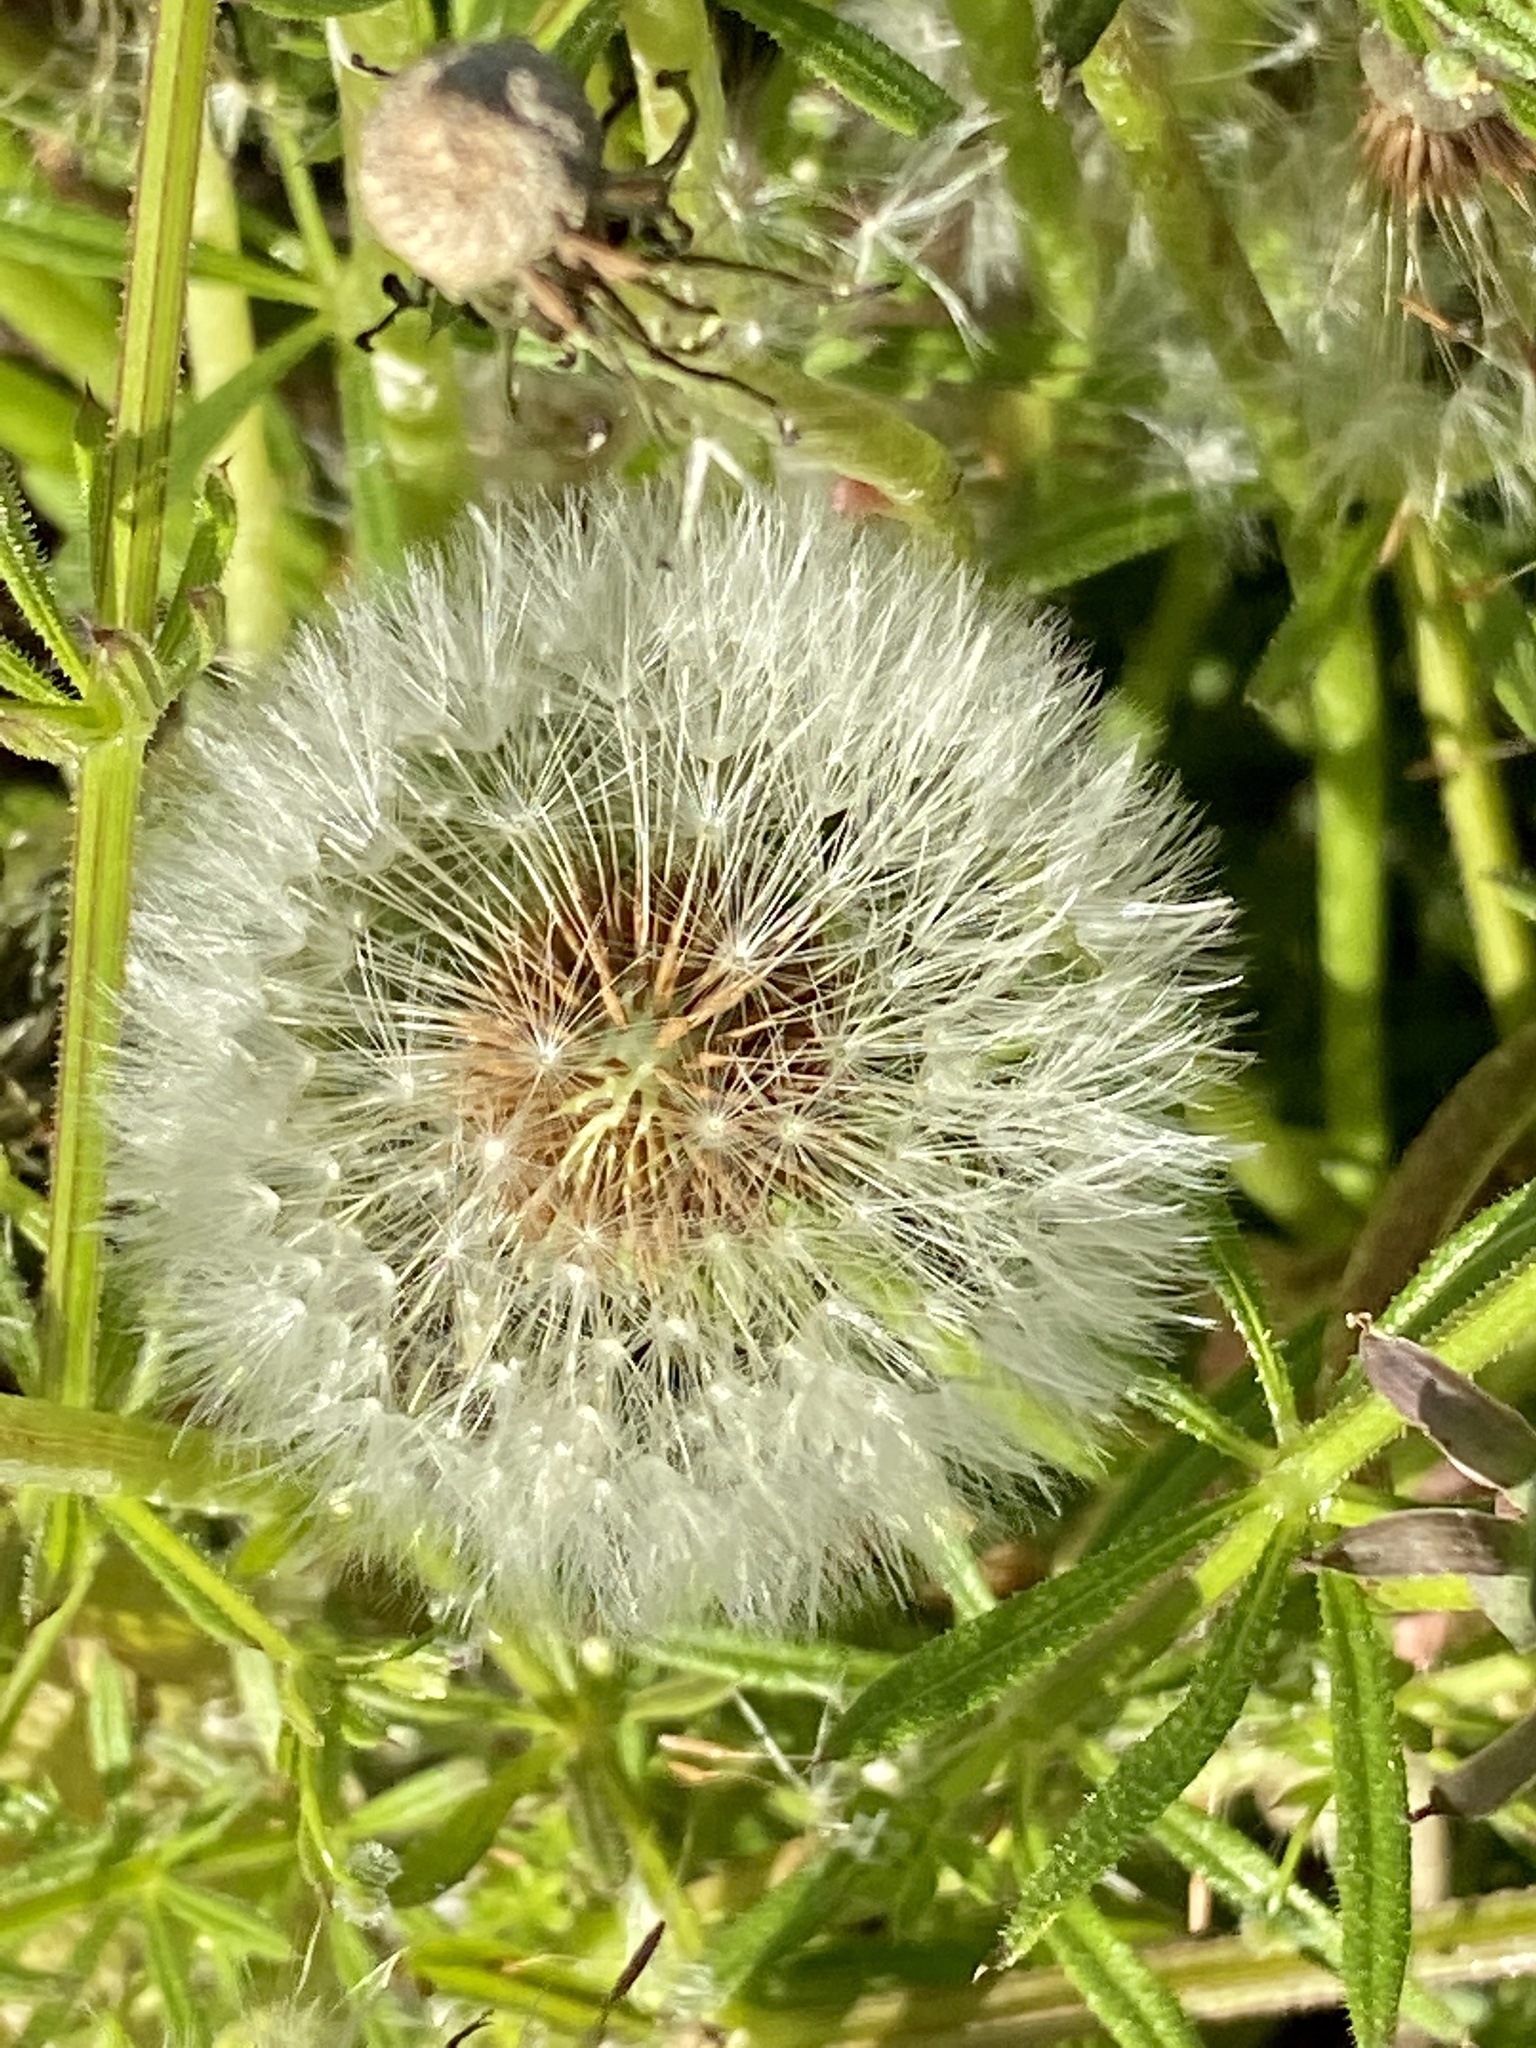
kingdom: Plantae
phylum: Tracheophyta
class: Magnoliopsida
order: Asterales
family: Asteraceae
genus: Taraxacum
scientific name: Taraxacum officinale
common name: Common dandelion
